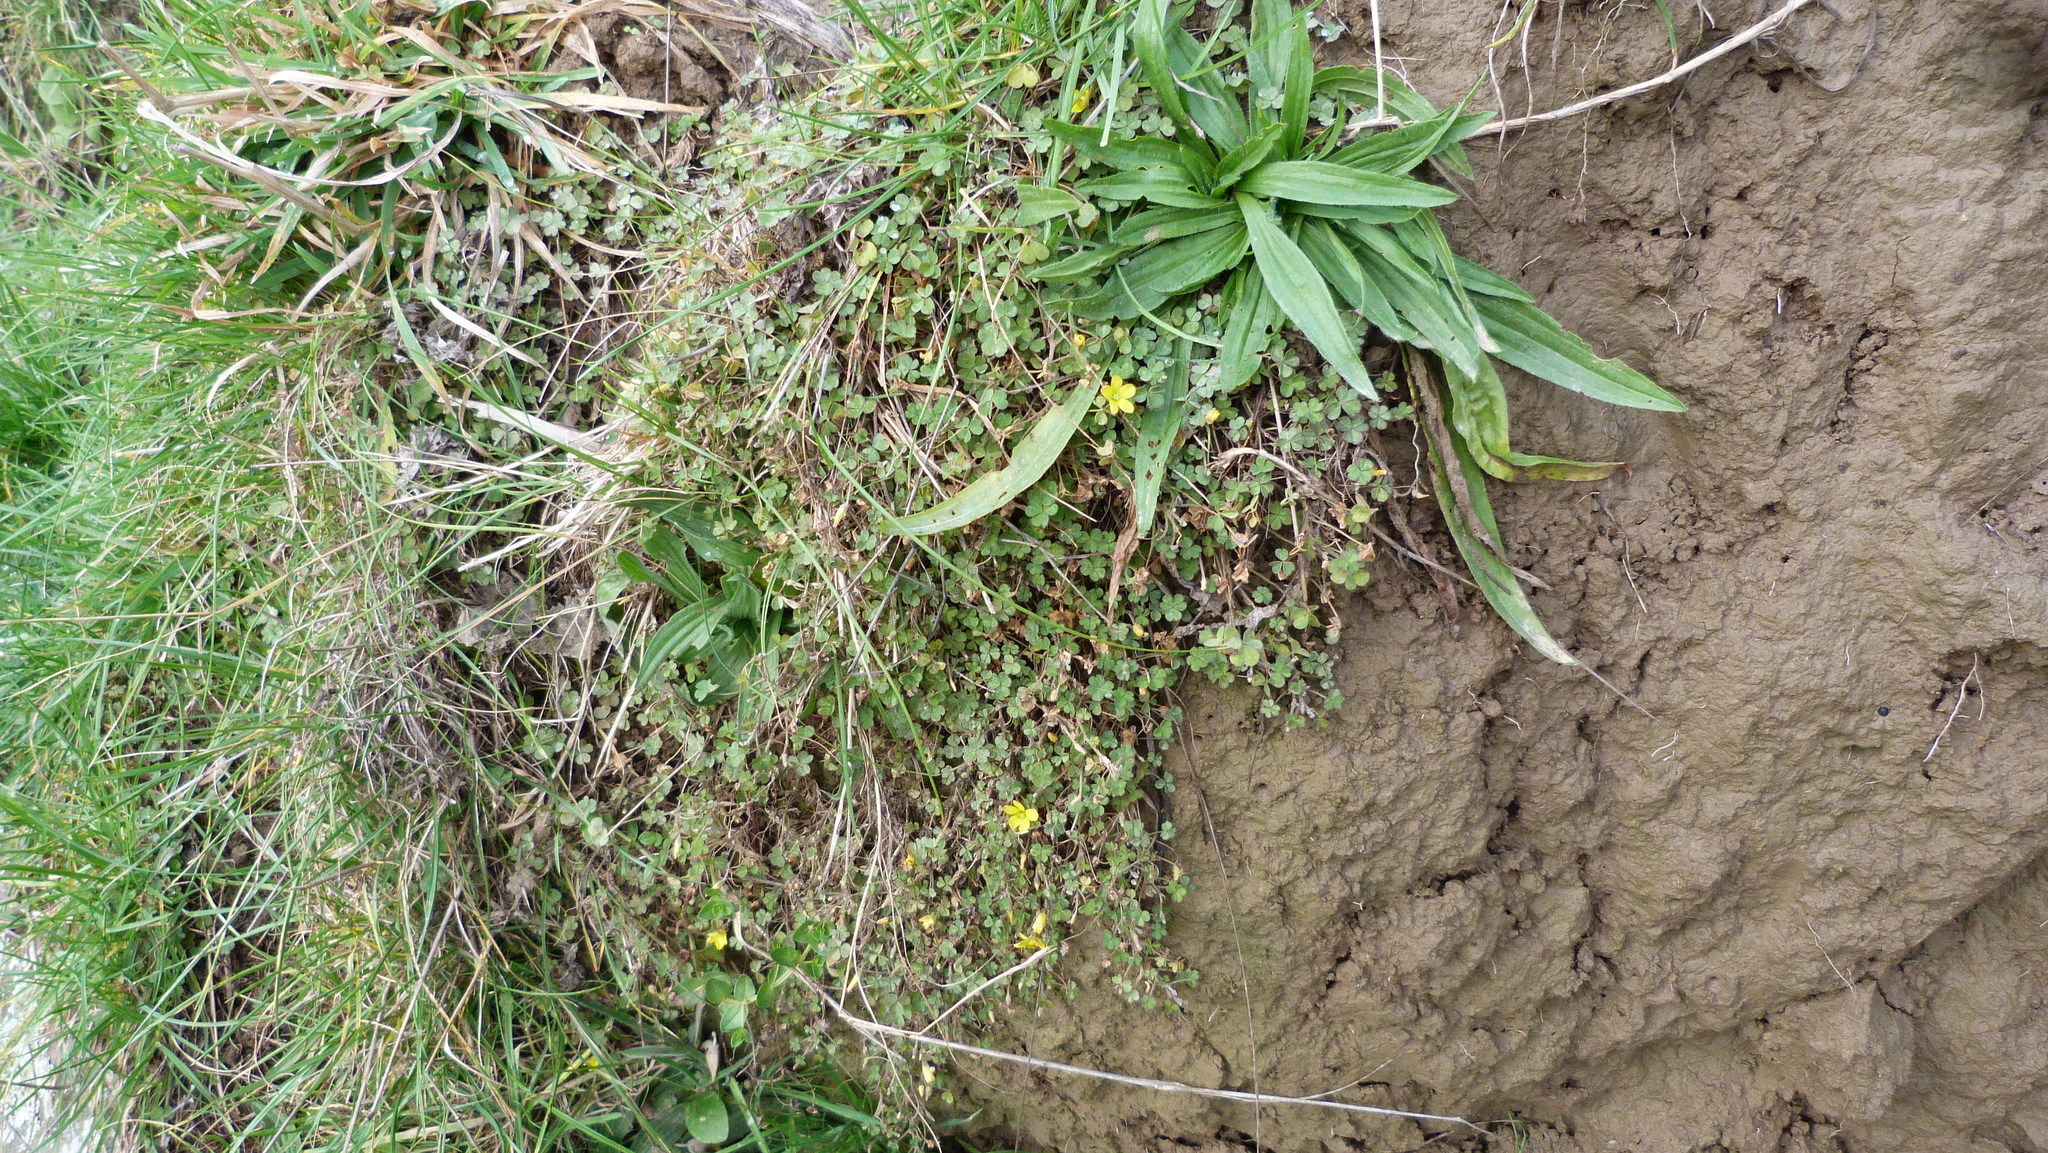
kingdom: Plantae
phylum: Tracheophyta
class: Magnoliopsida
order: Oxalidales
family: Oxalidaceae
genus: Oxalis
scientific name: Oxalis exilis
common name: Least yellow-sorrel
